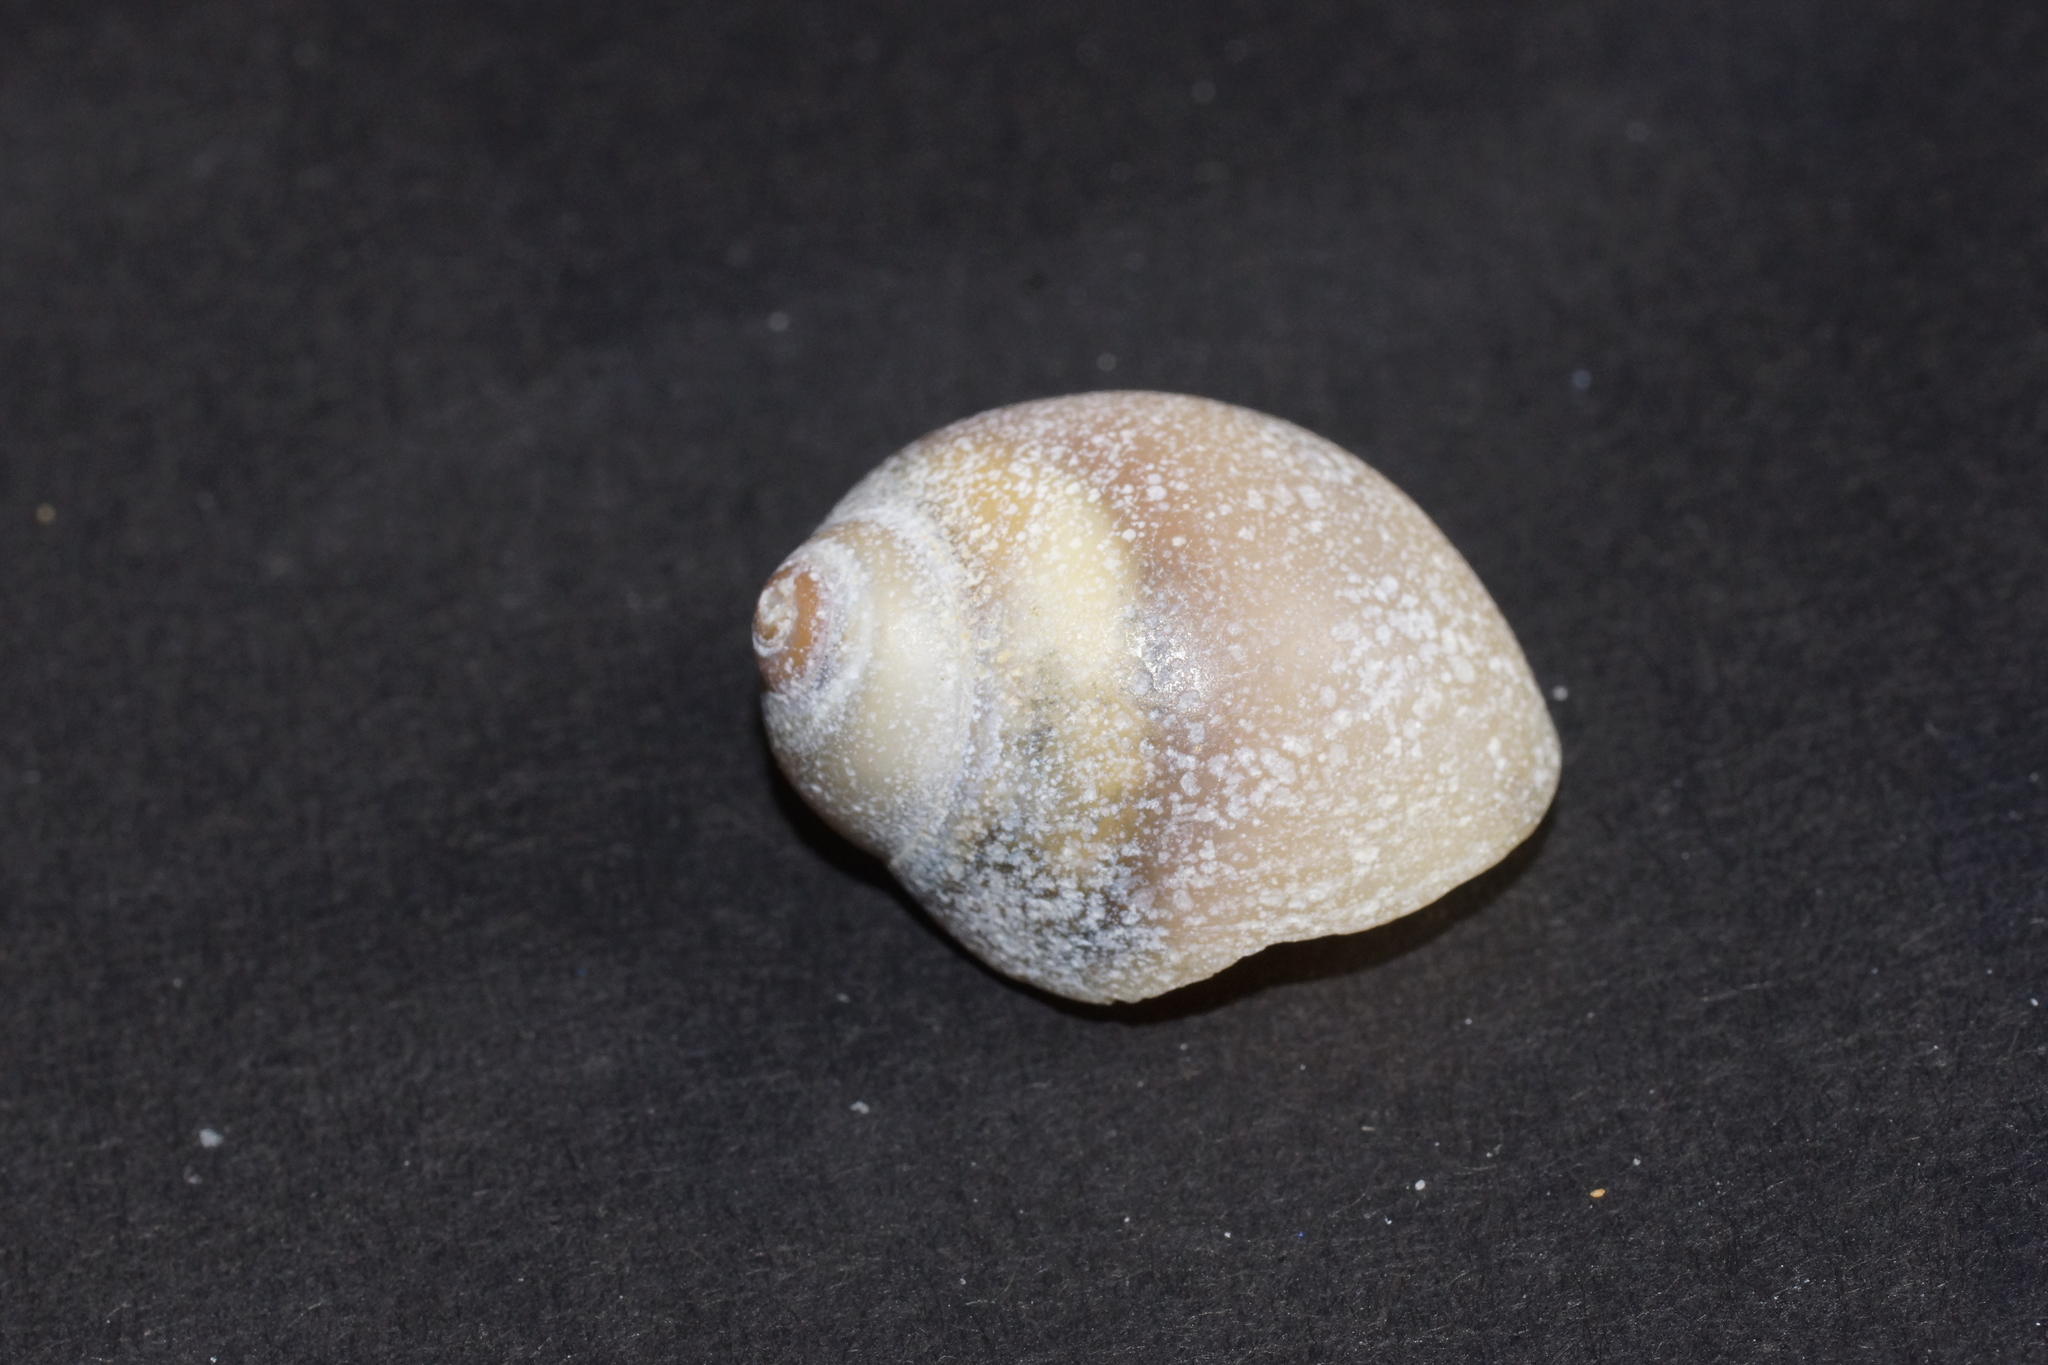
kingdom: Animalia
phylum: Mollusca
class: Gastropoda
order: Littorinimorpha
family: Naticidae
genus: Conuber
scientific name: Conuber conicum
